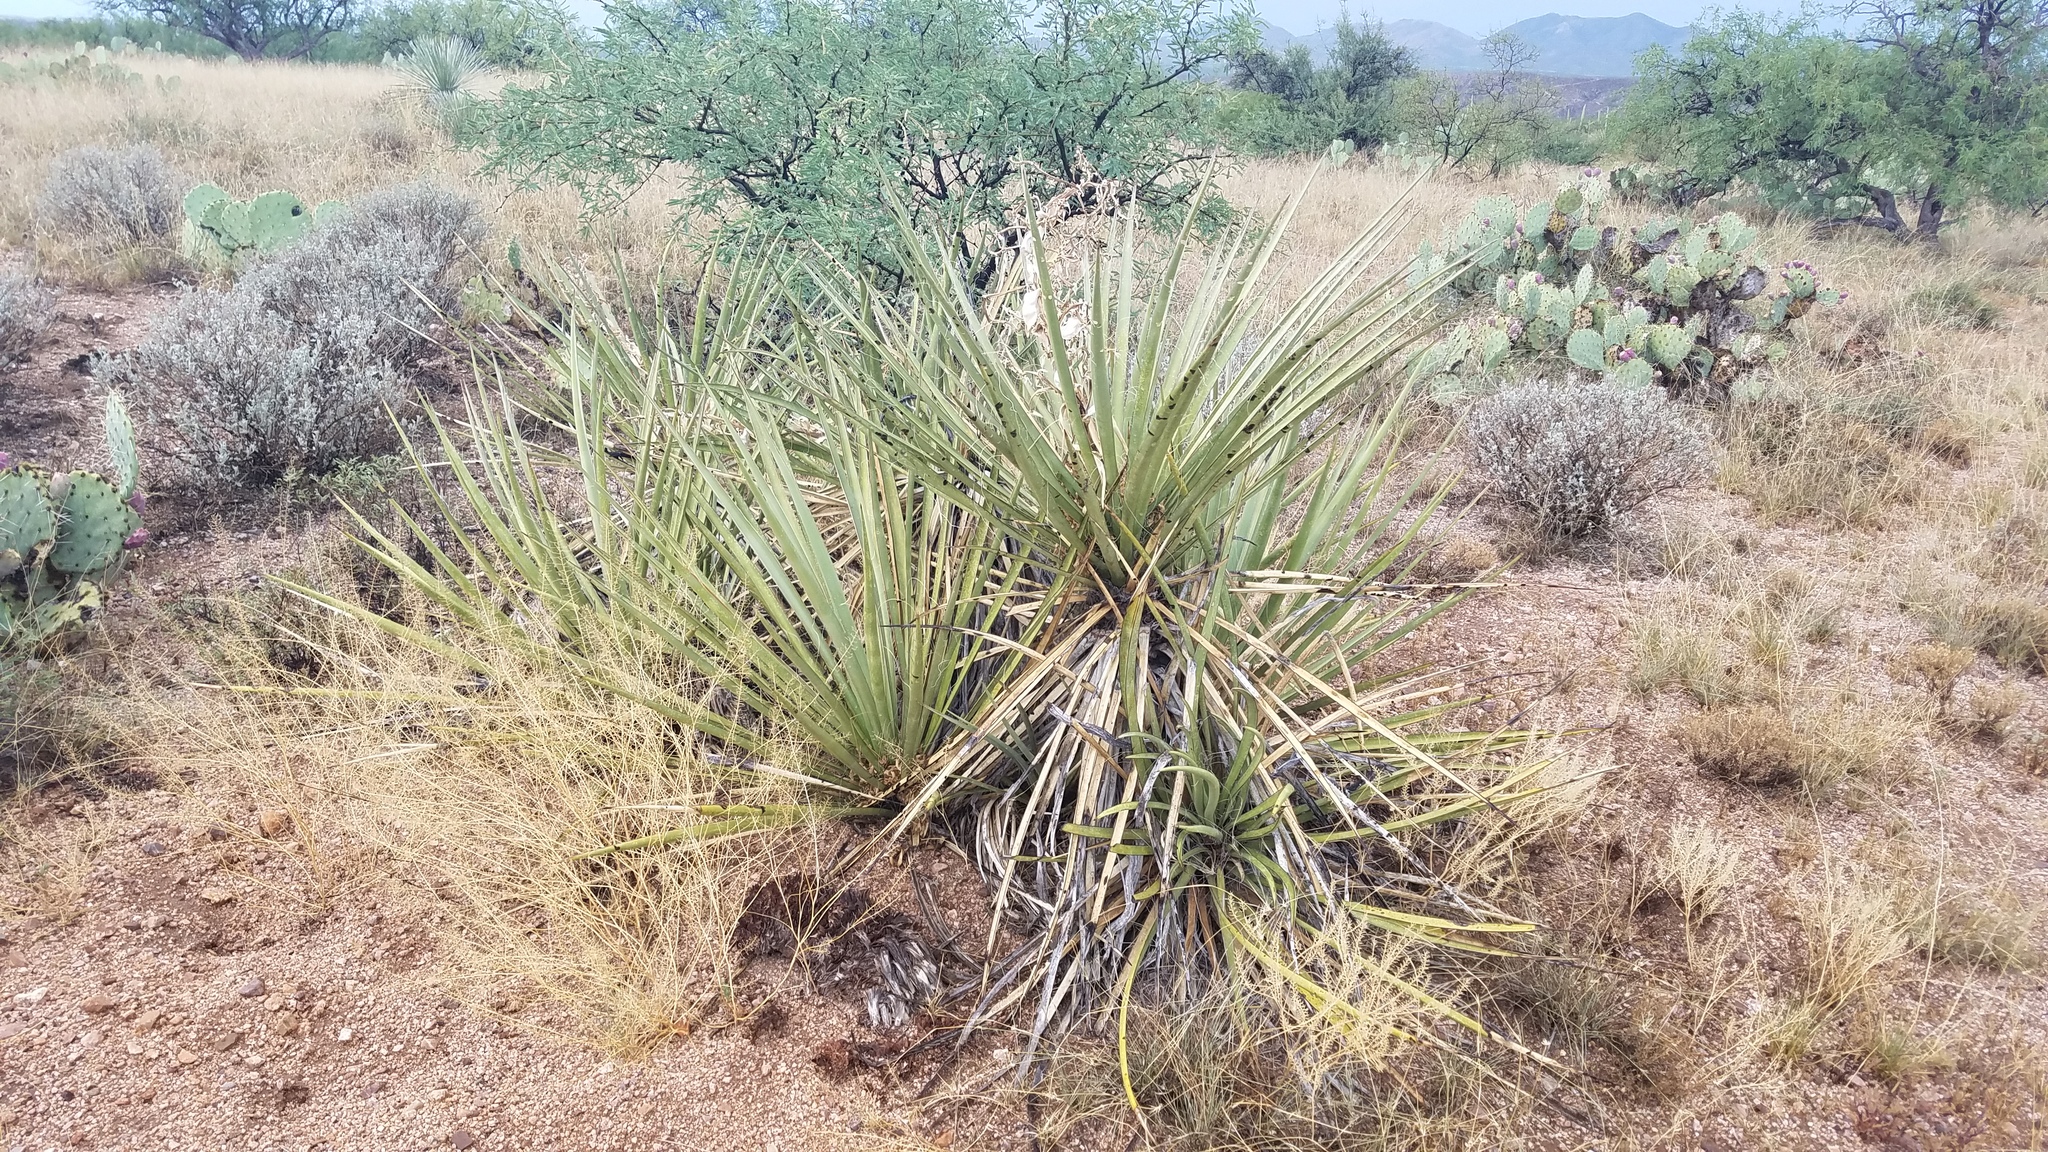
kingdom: Plantae
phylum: Tracheophyta
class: Liliopsida
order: Asparagales
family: Asparagaceae
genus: Yucca
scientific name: Yucca baccata
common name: Banana yucca
